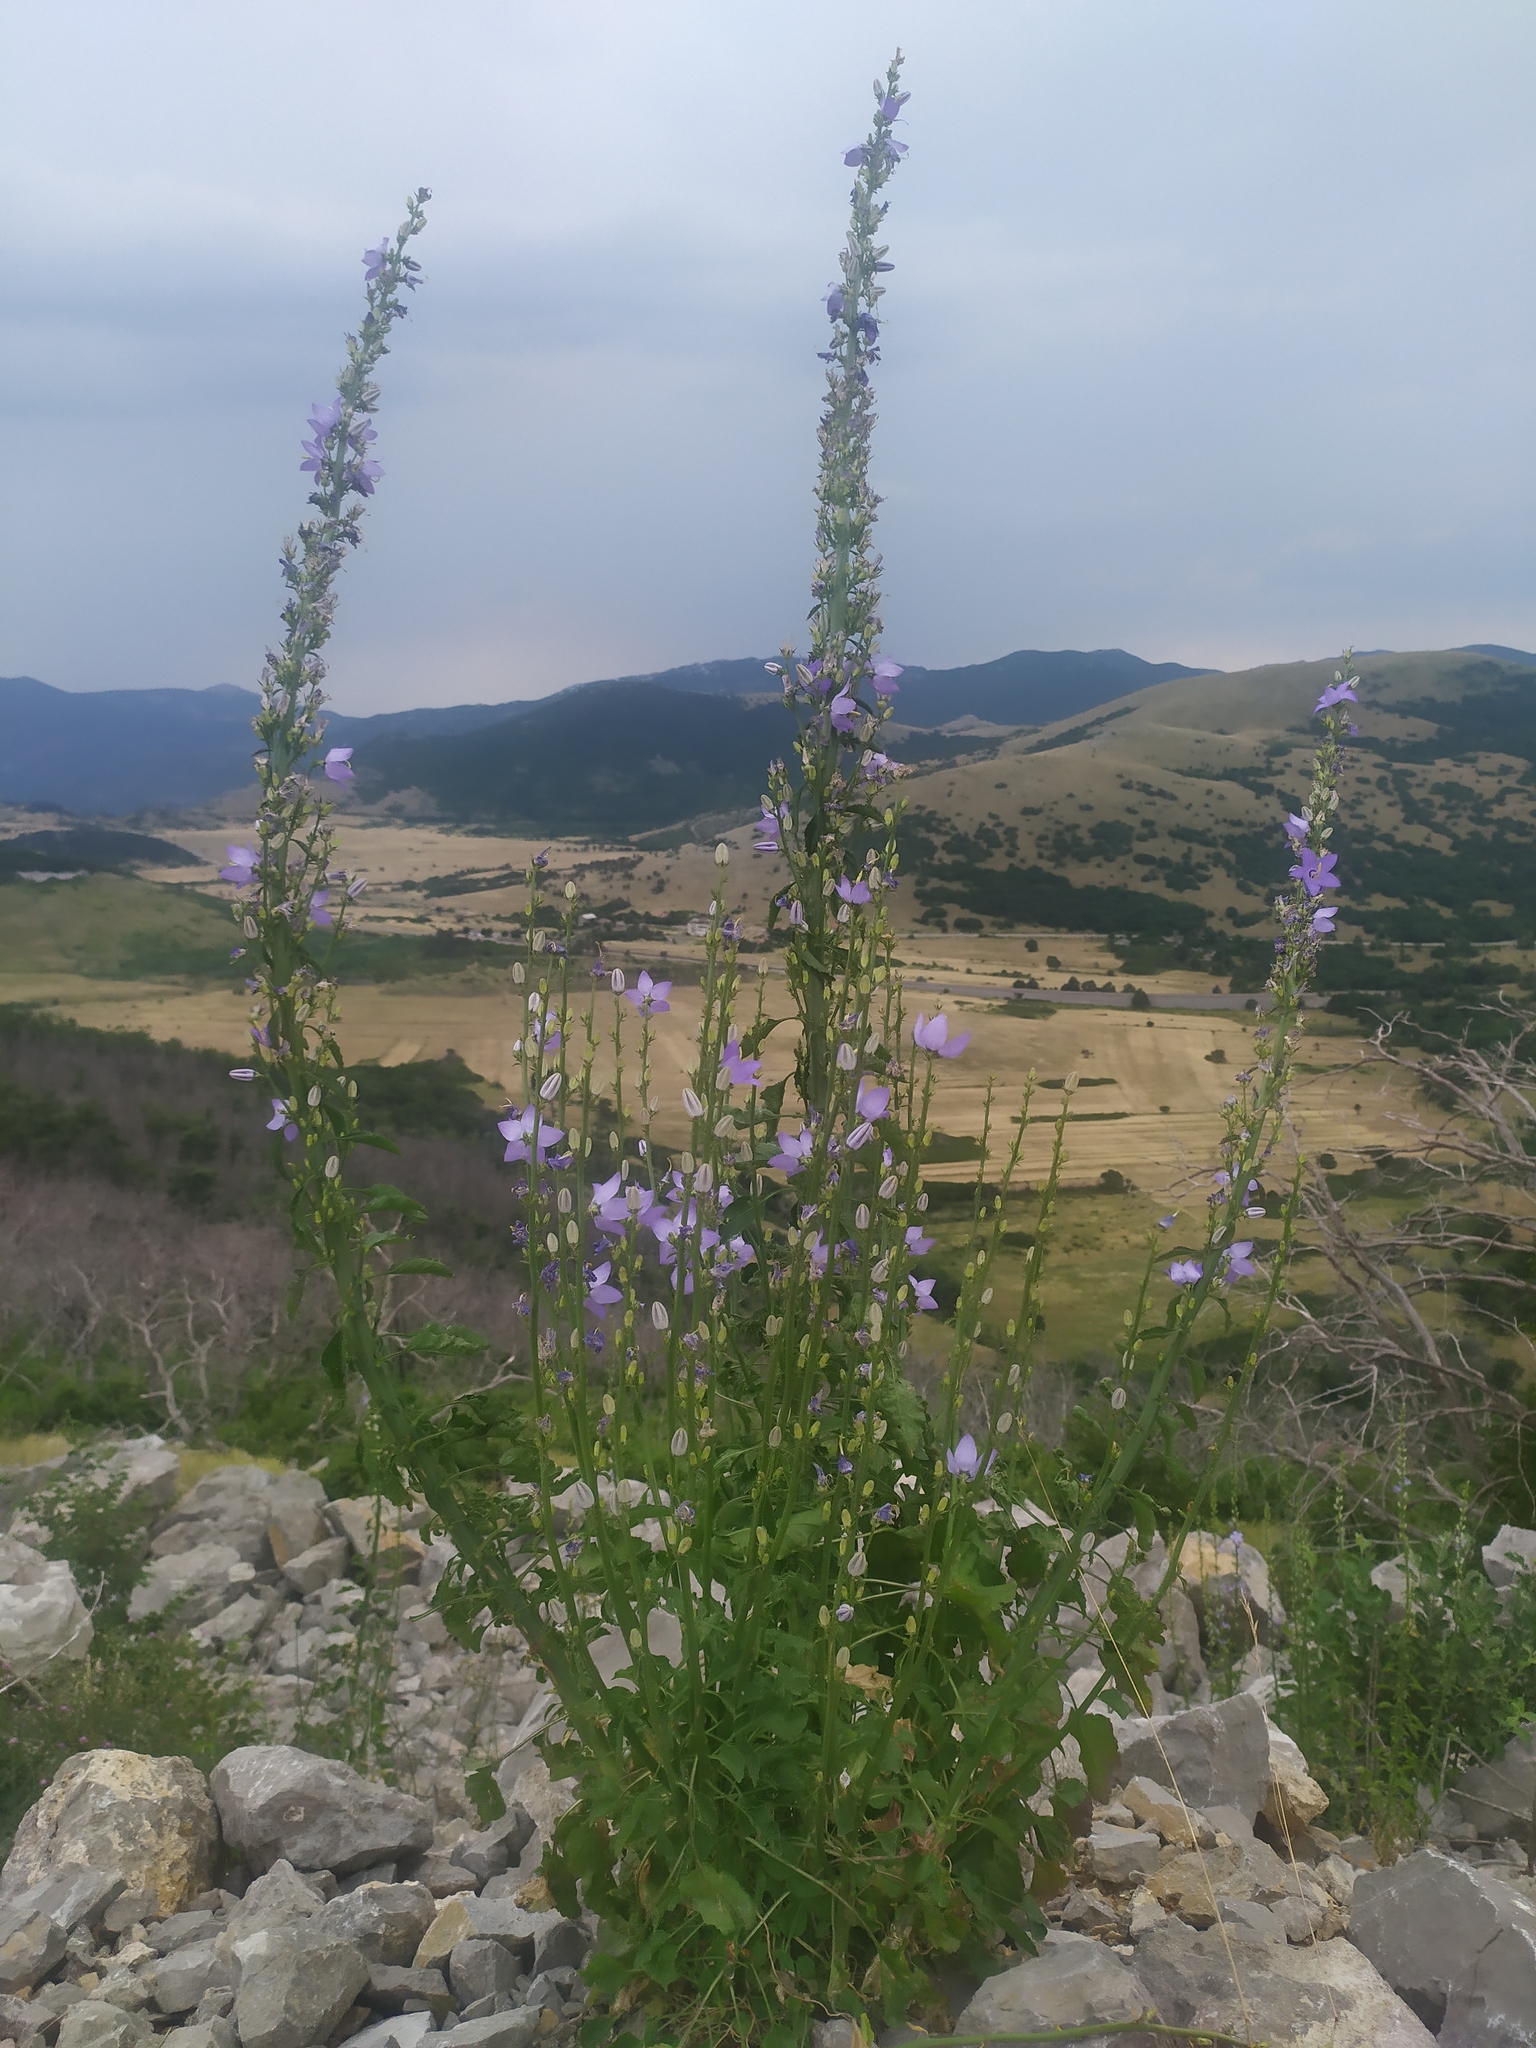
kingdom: Plantae
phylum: Tracheophyta
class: Magnoliopsida
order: Asterales
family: Campanulaceae
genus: Campanula
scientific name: Campanula pyramidalis
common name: Chimney bellflower
